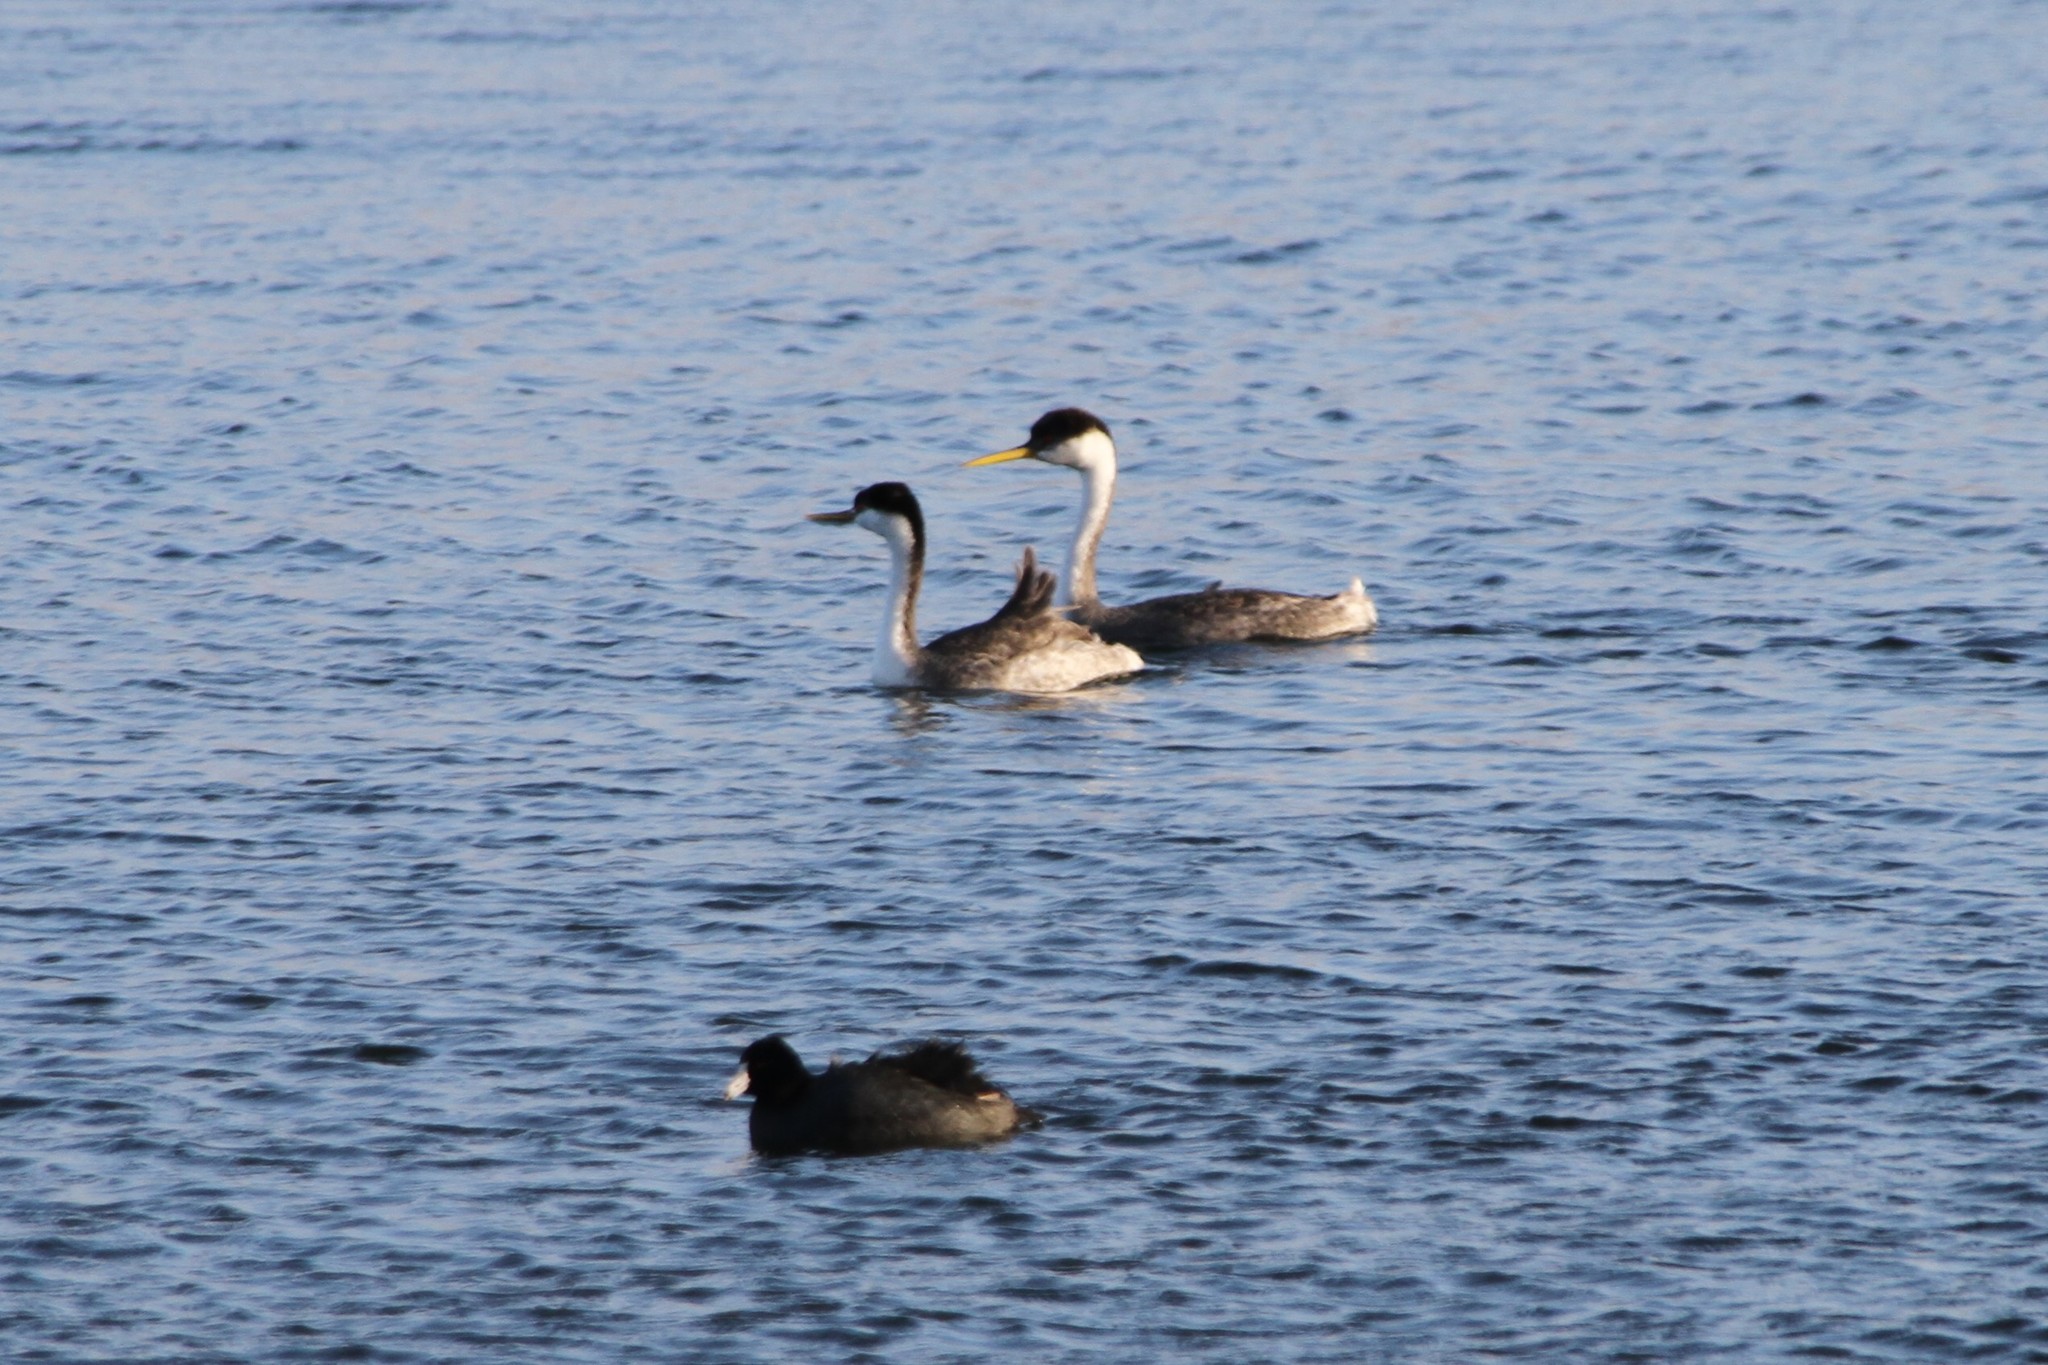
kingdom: Animalia
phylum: Chordata
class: Aves
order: Podicipediformes
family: Podicipedidae
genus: Aechmophorus
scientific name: Aechmophorus occidentalis
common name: Western grebe
